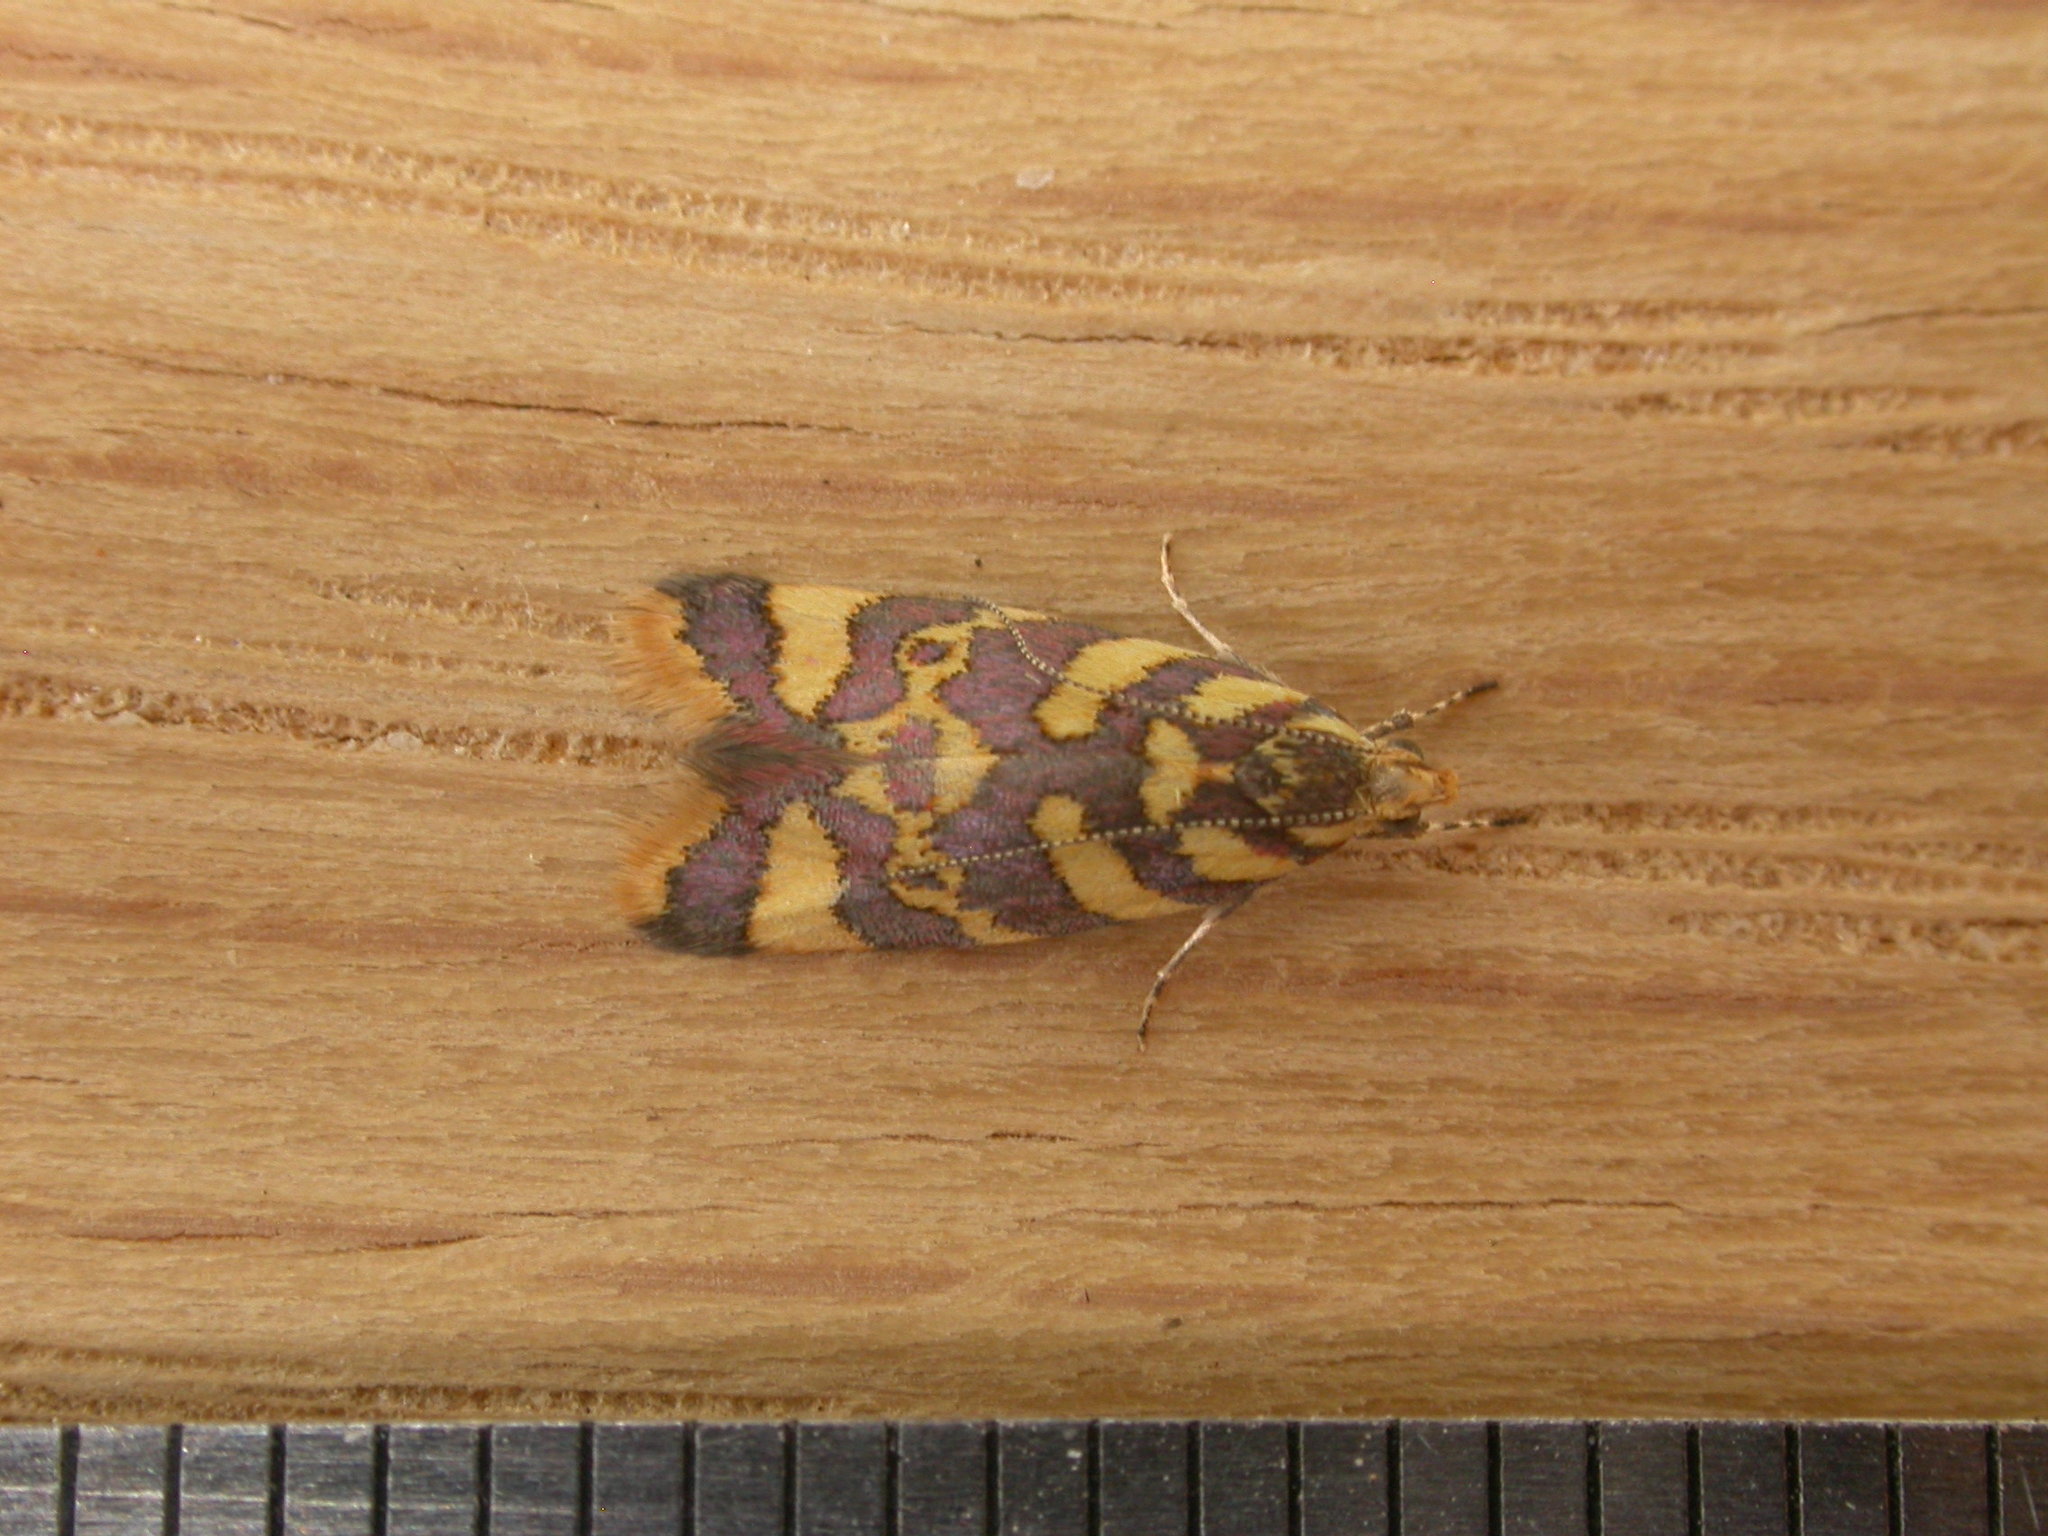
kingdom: Animalia
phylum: Arthropoda
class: Insecta
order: Lepidoptera
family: Oecophoridae
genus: Tisobarica
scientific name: Tisobarica thyteria
